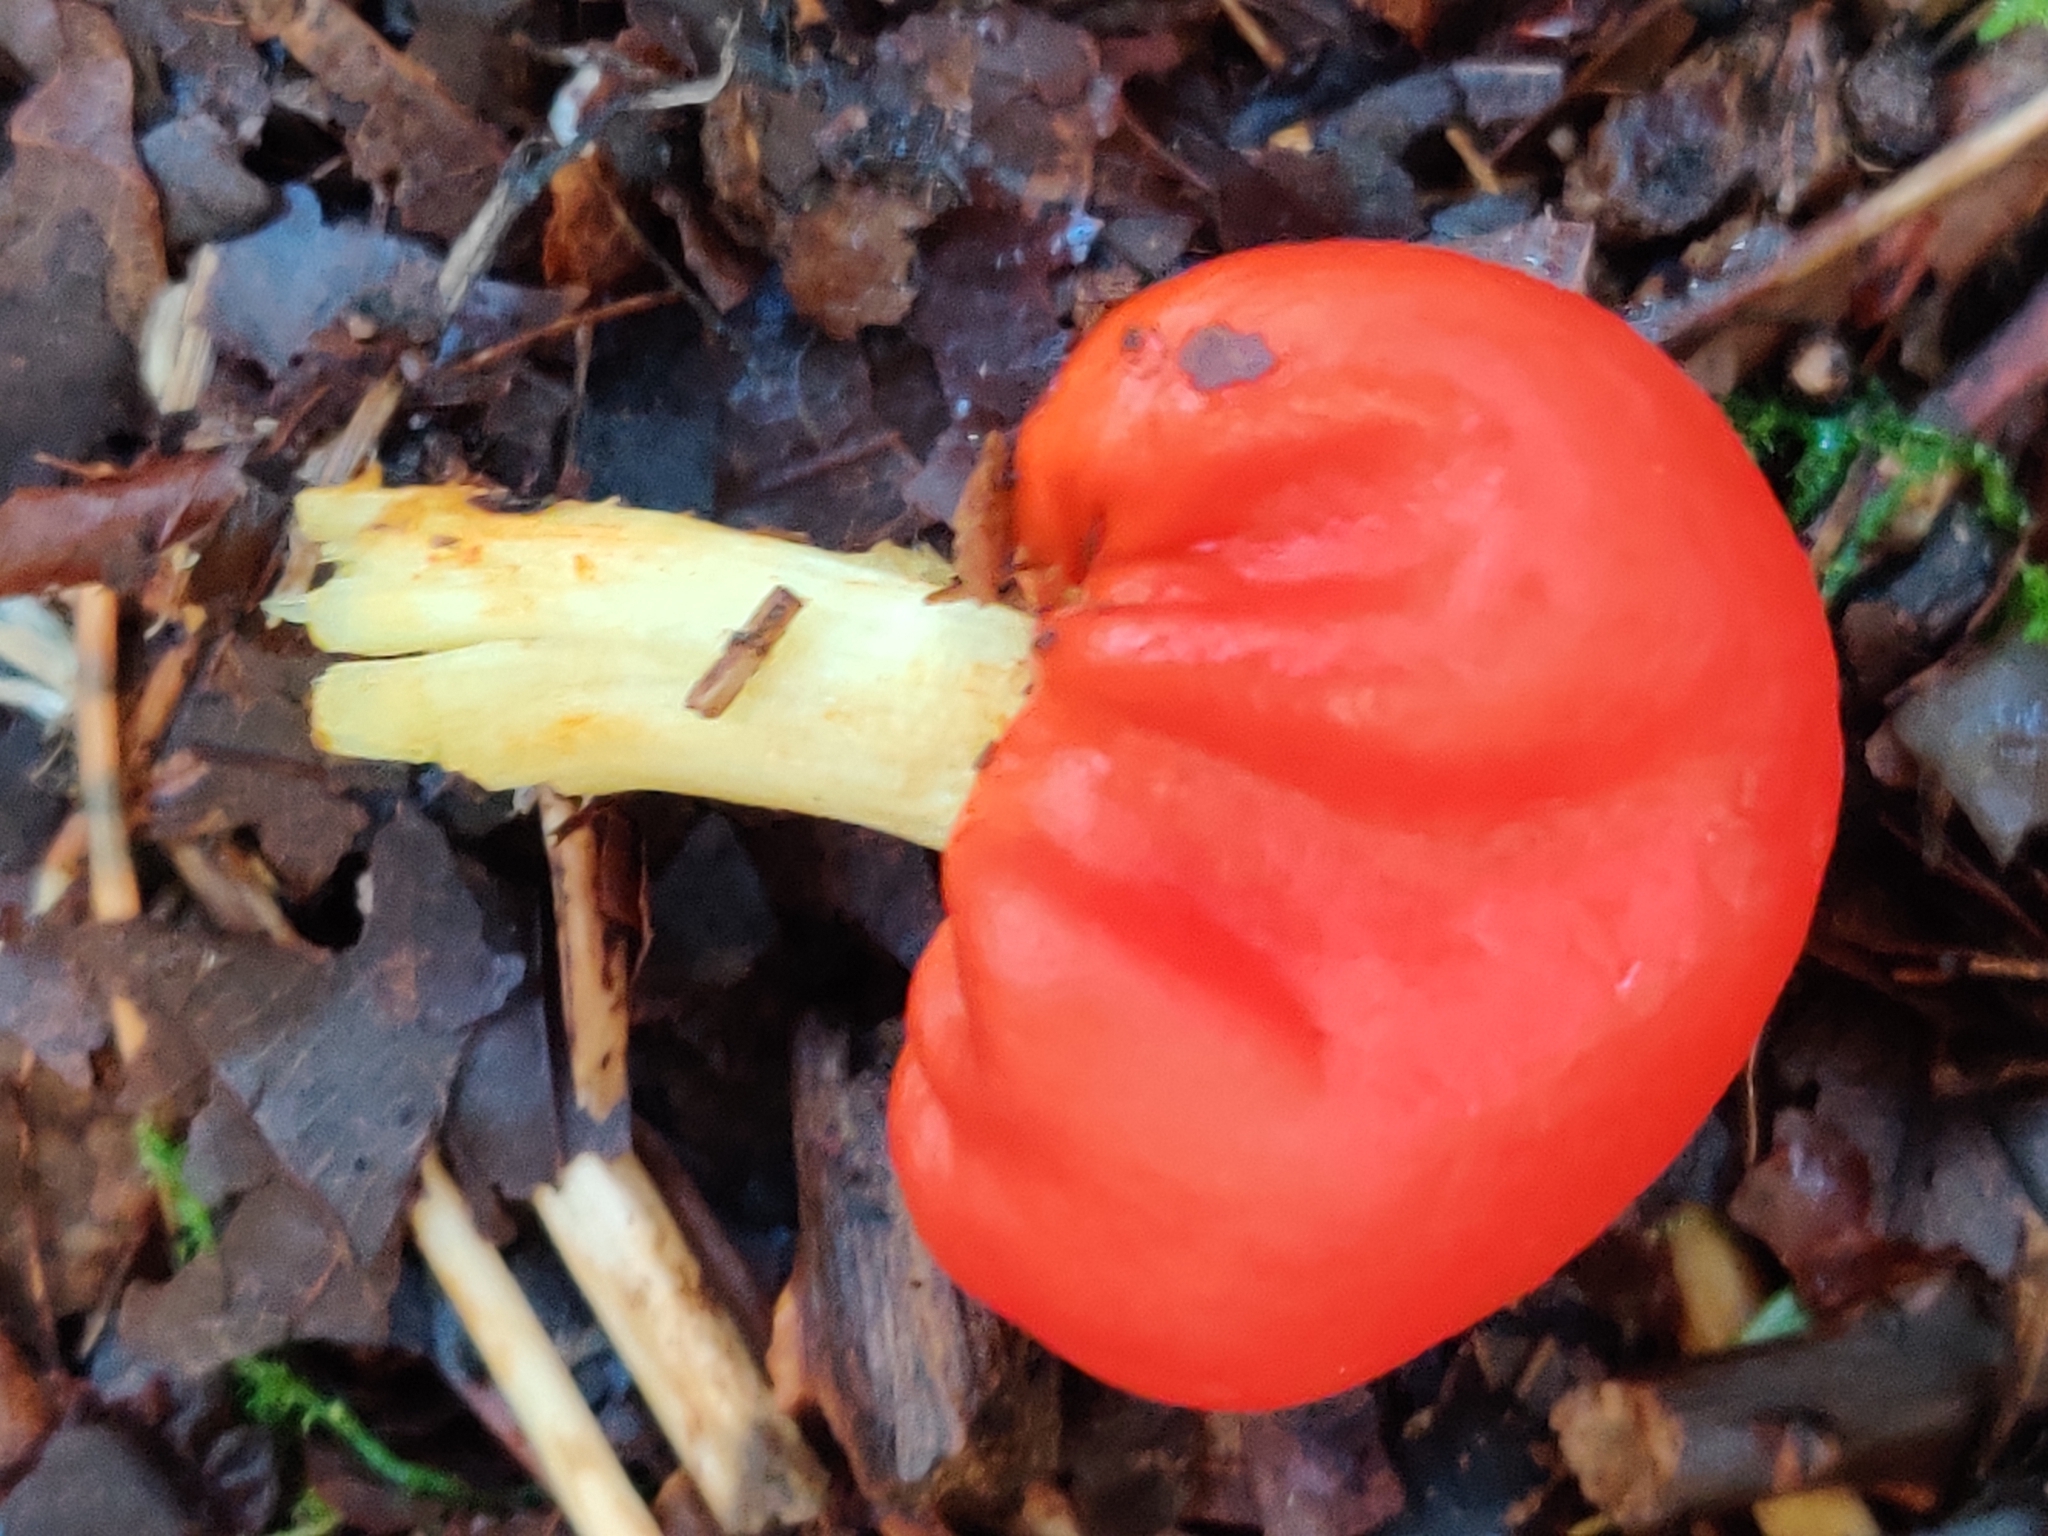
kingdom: Fungi
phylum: Basidiomycota
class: Agaricomycetes
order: Agaricales
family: Strophariaceae
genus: Leratiomyces
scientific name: Leratiomyces erythrocephalus
